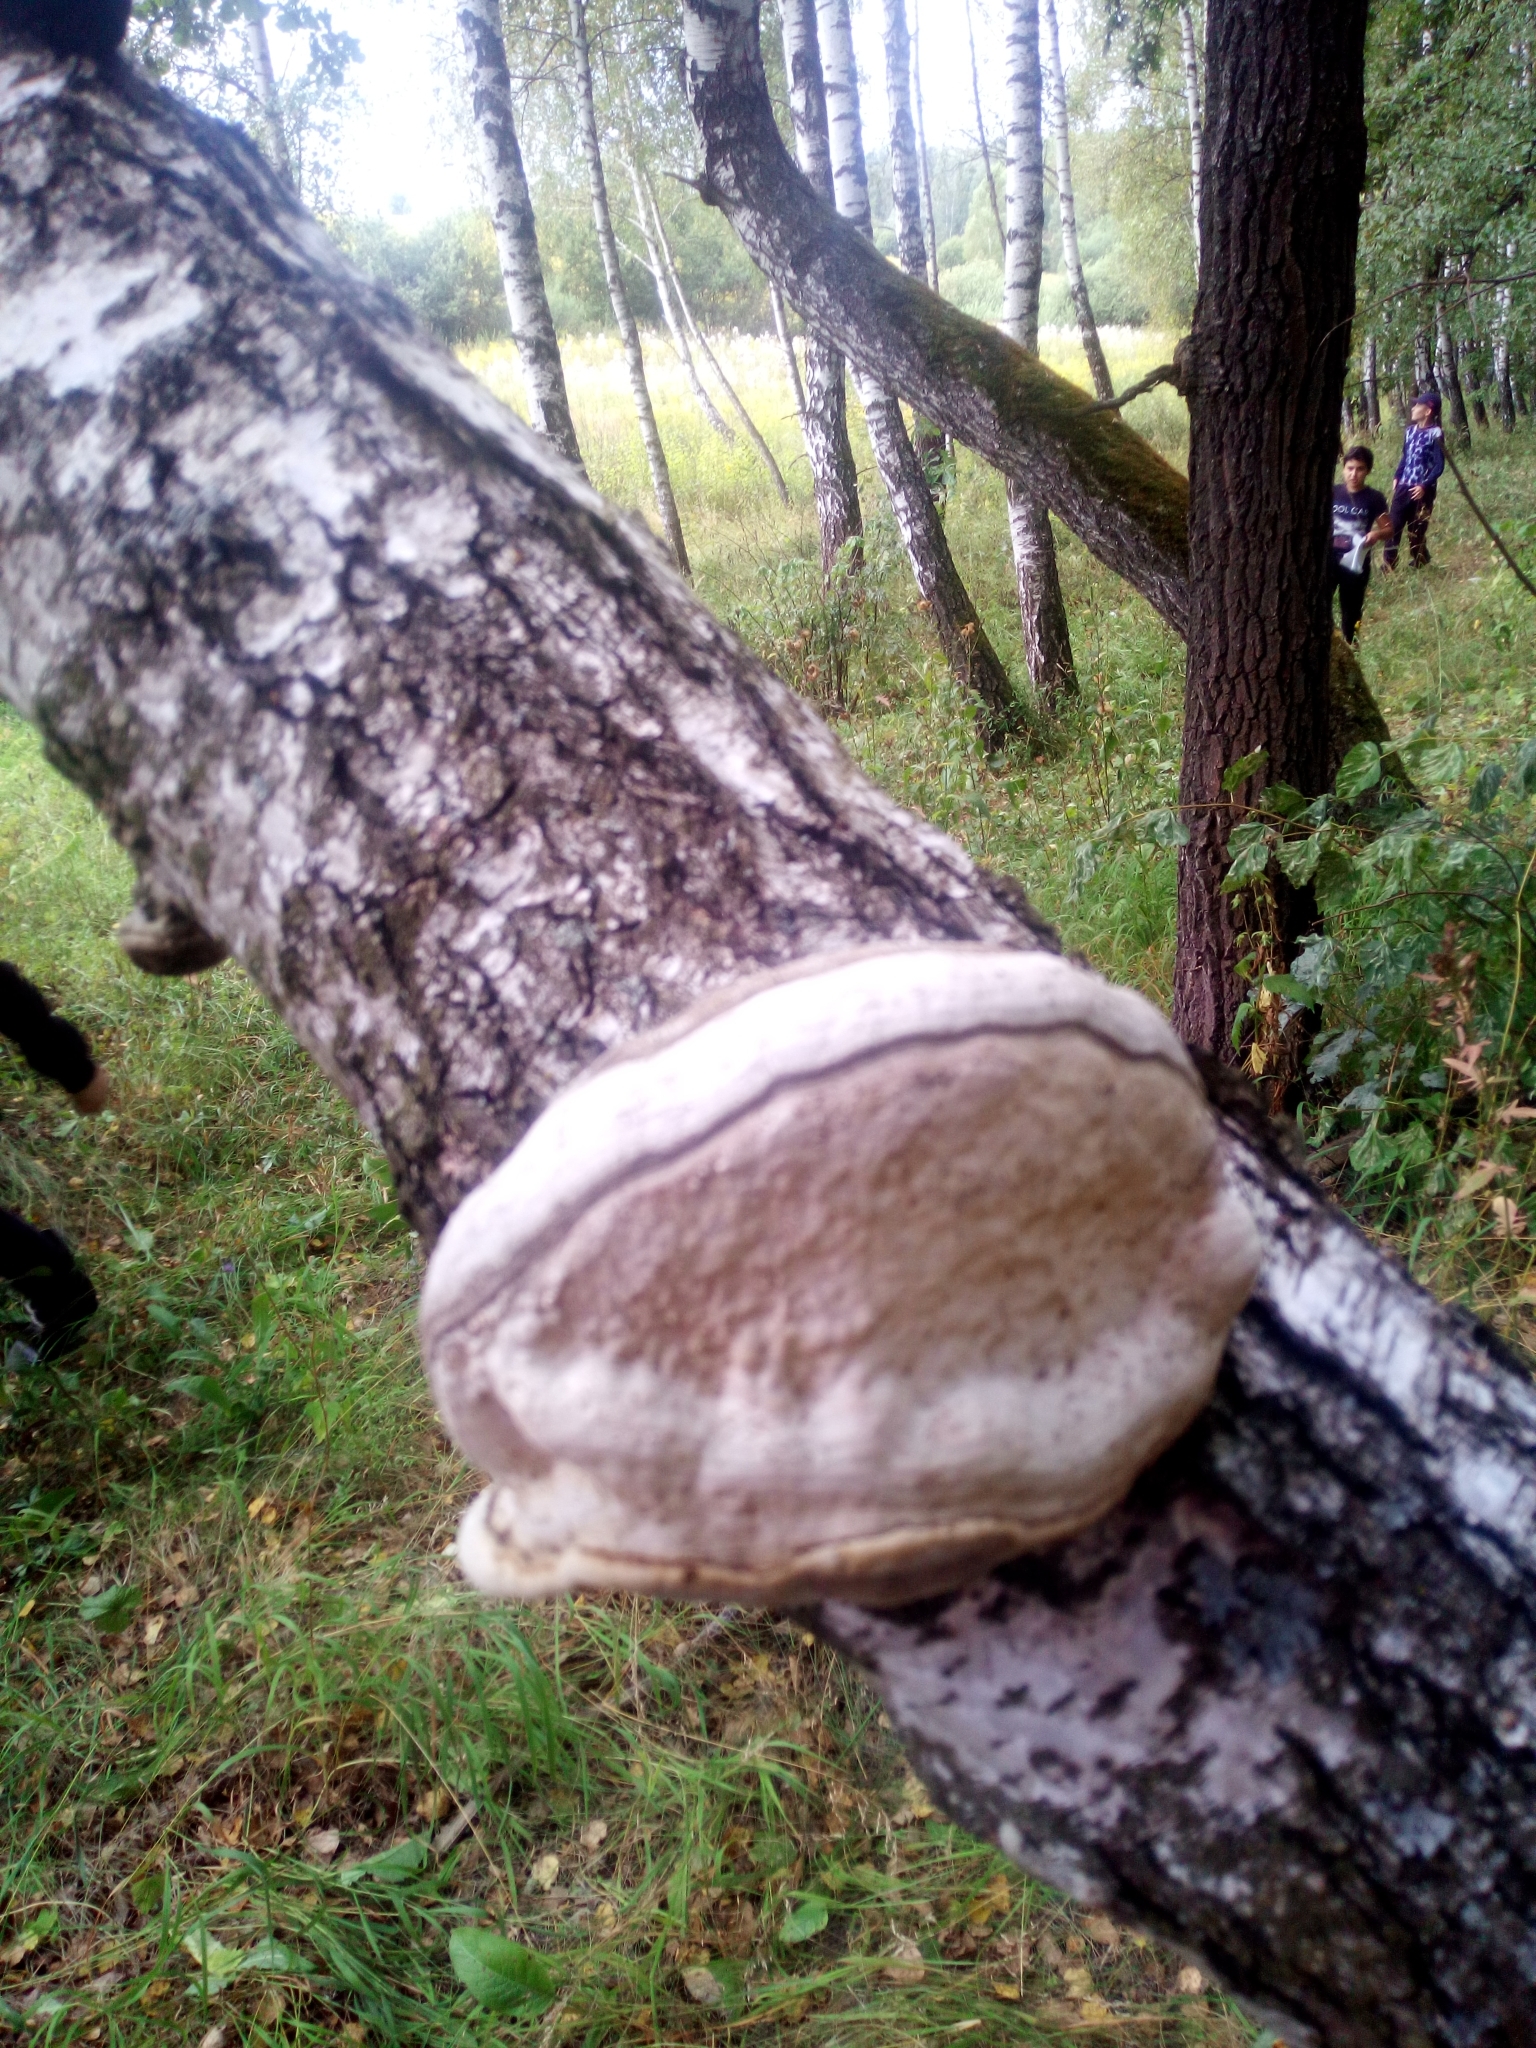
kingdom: Fungi
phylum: Basidiomycota
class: Agaricomycetes
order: Polyporales
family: Polyporaceae
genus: Fomes
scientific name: Fomes fomentarius
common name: Hoof fungus
